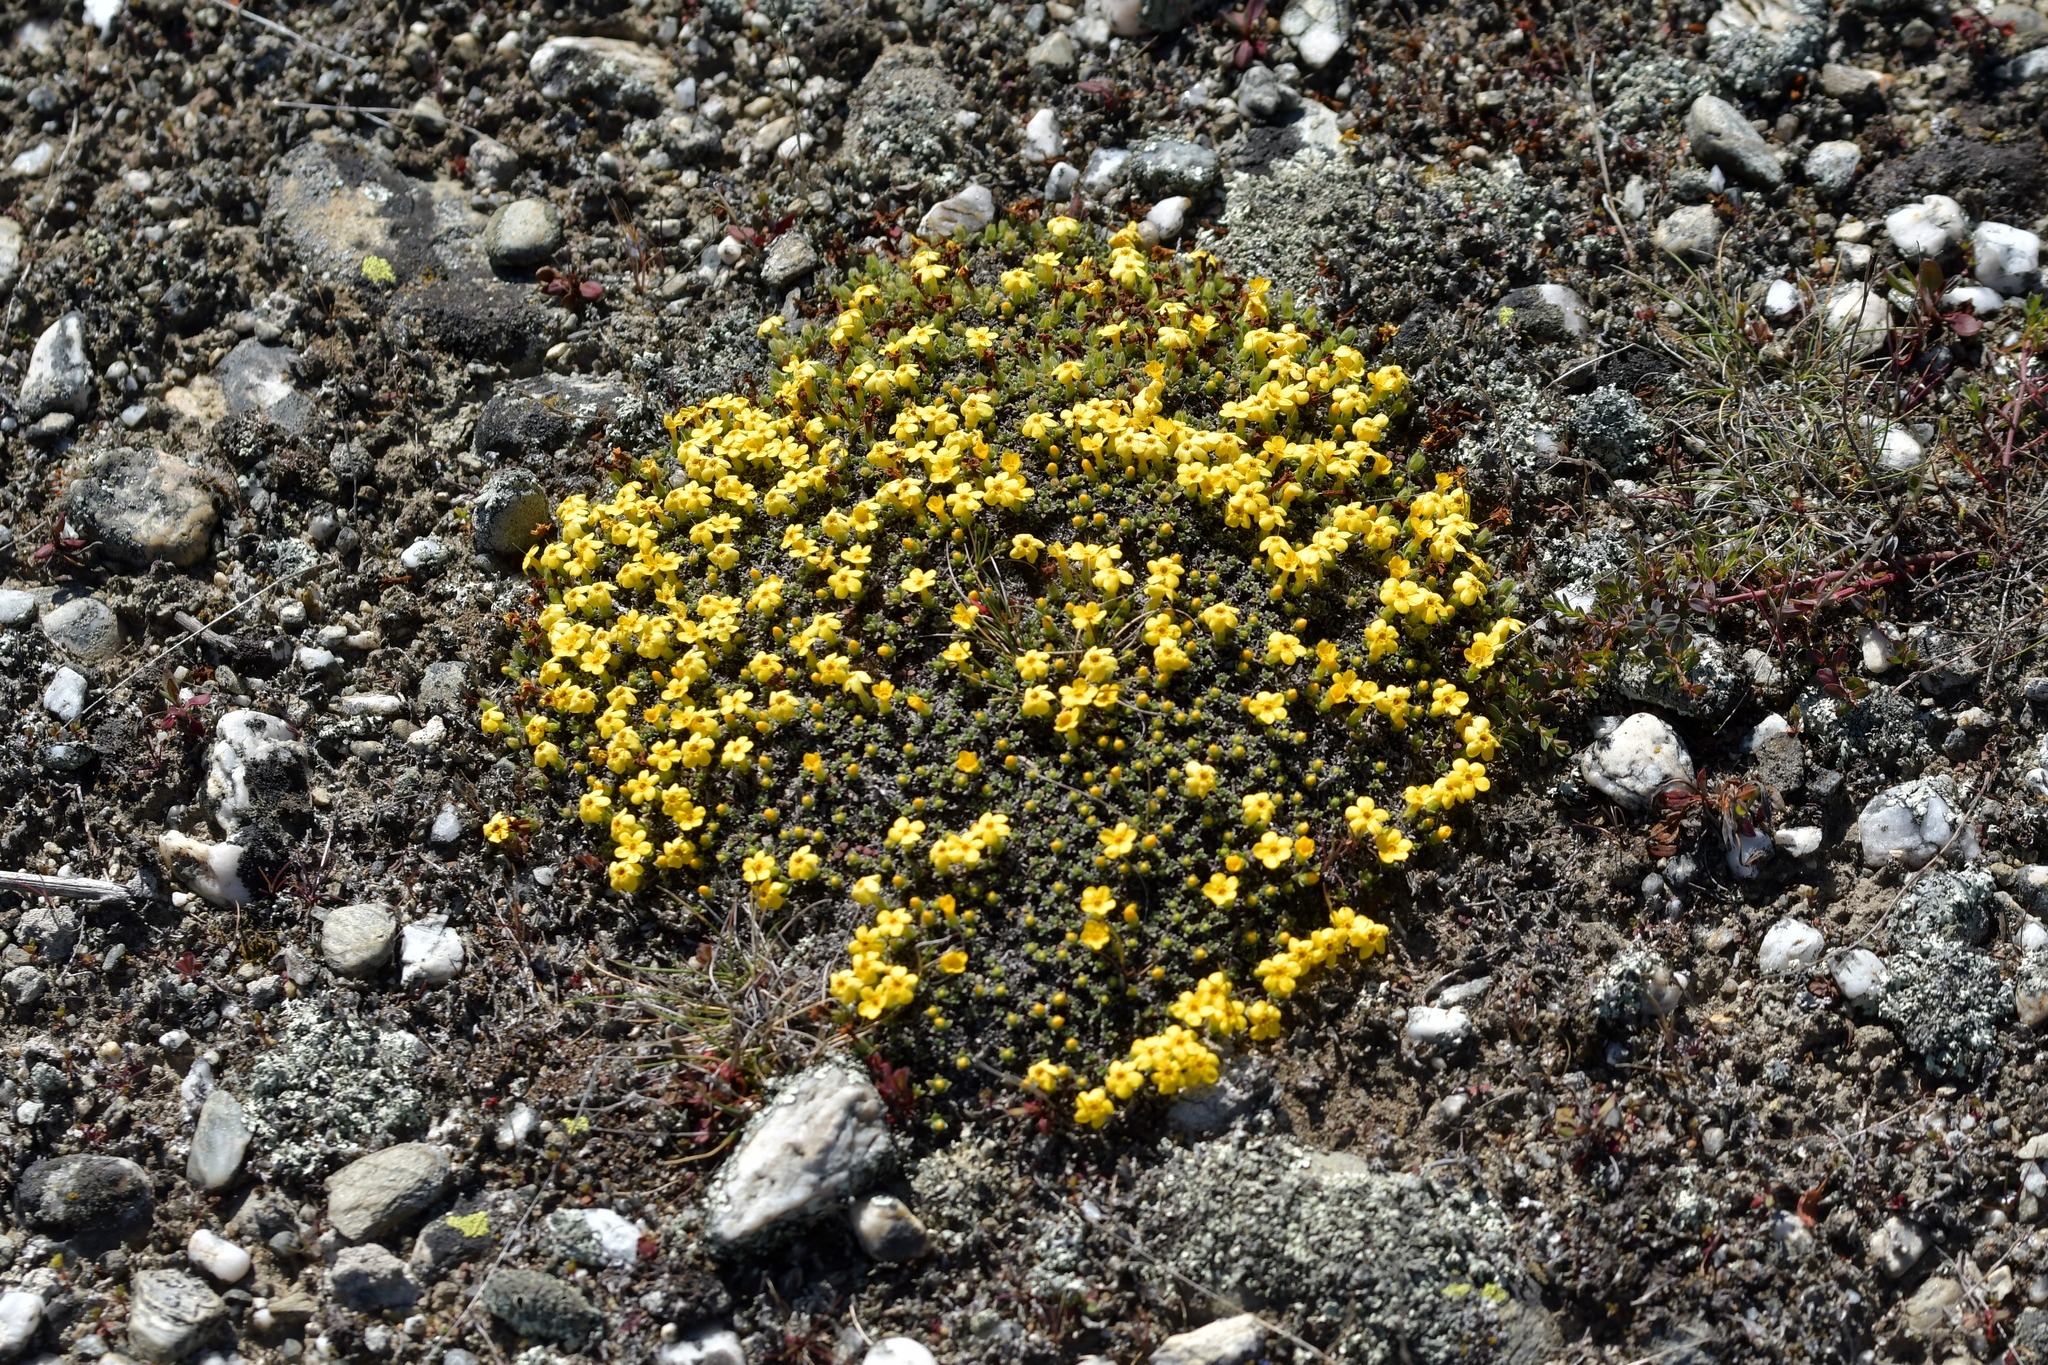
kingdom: Plantae
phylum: Tracheophyta
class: Magnoliopsida
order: Boraginales
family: Boraginaceae
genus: Myosotis
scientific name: Myosotis uniflora
